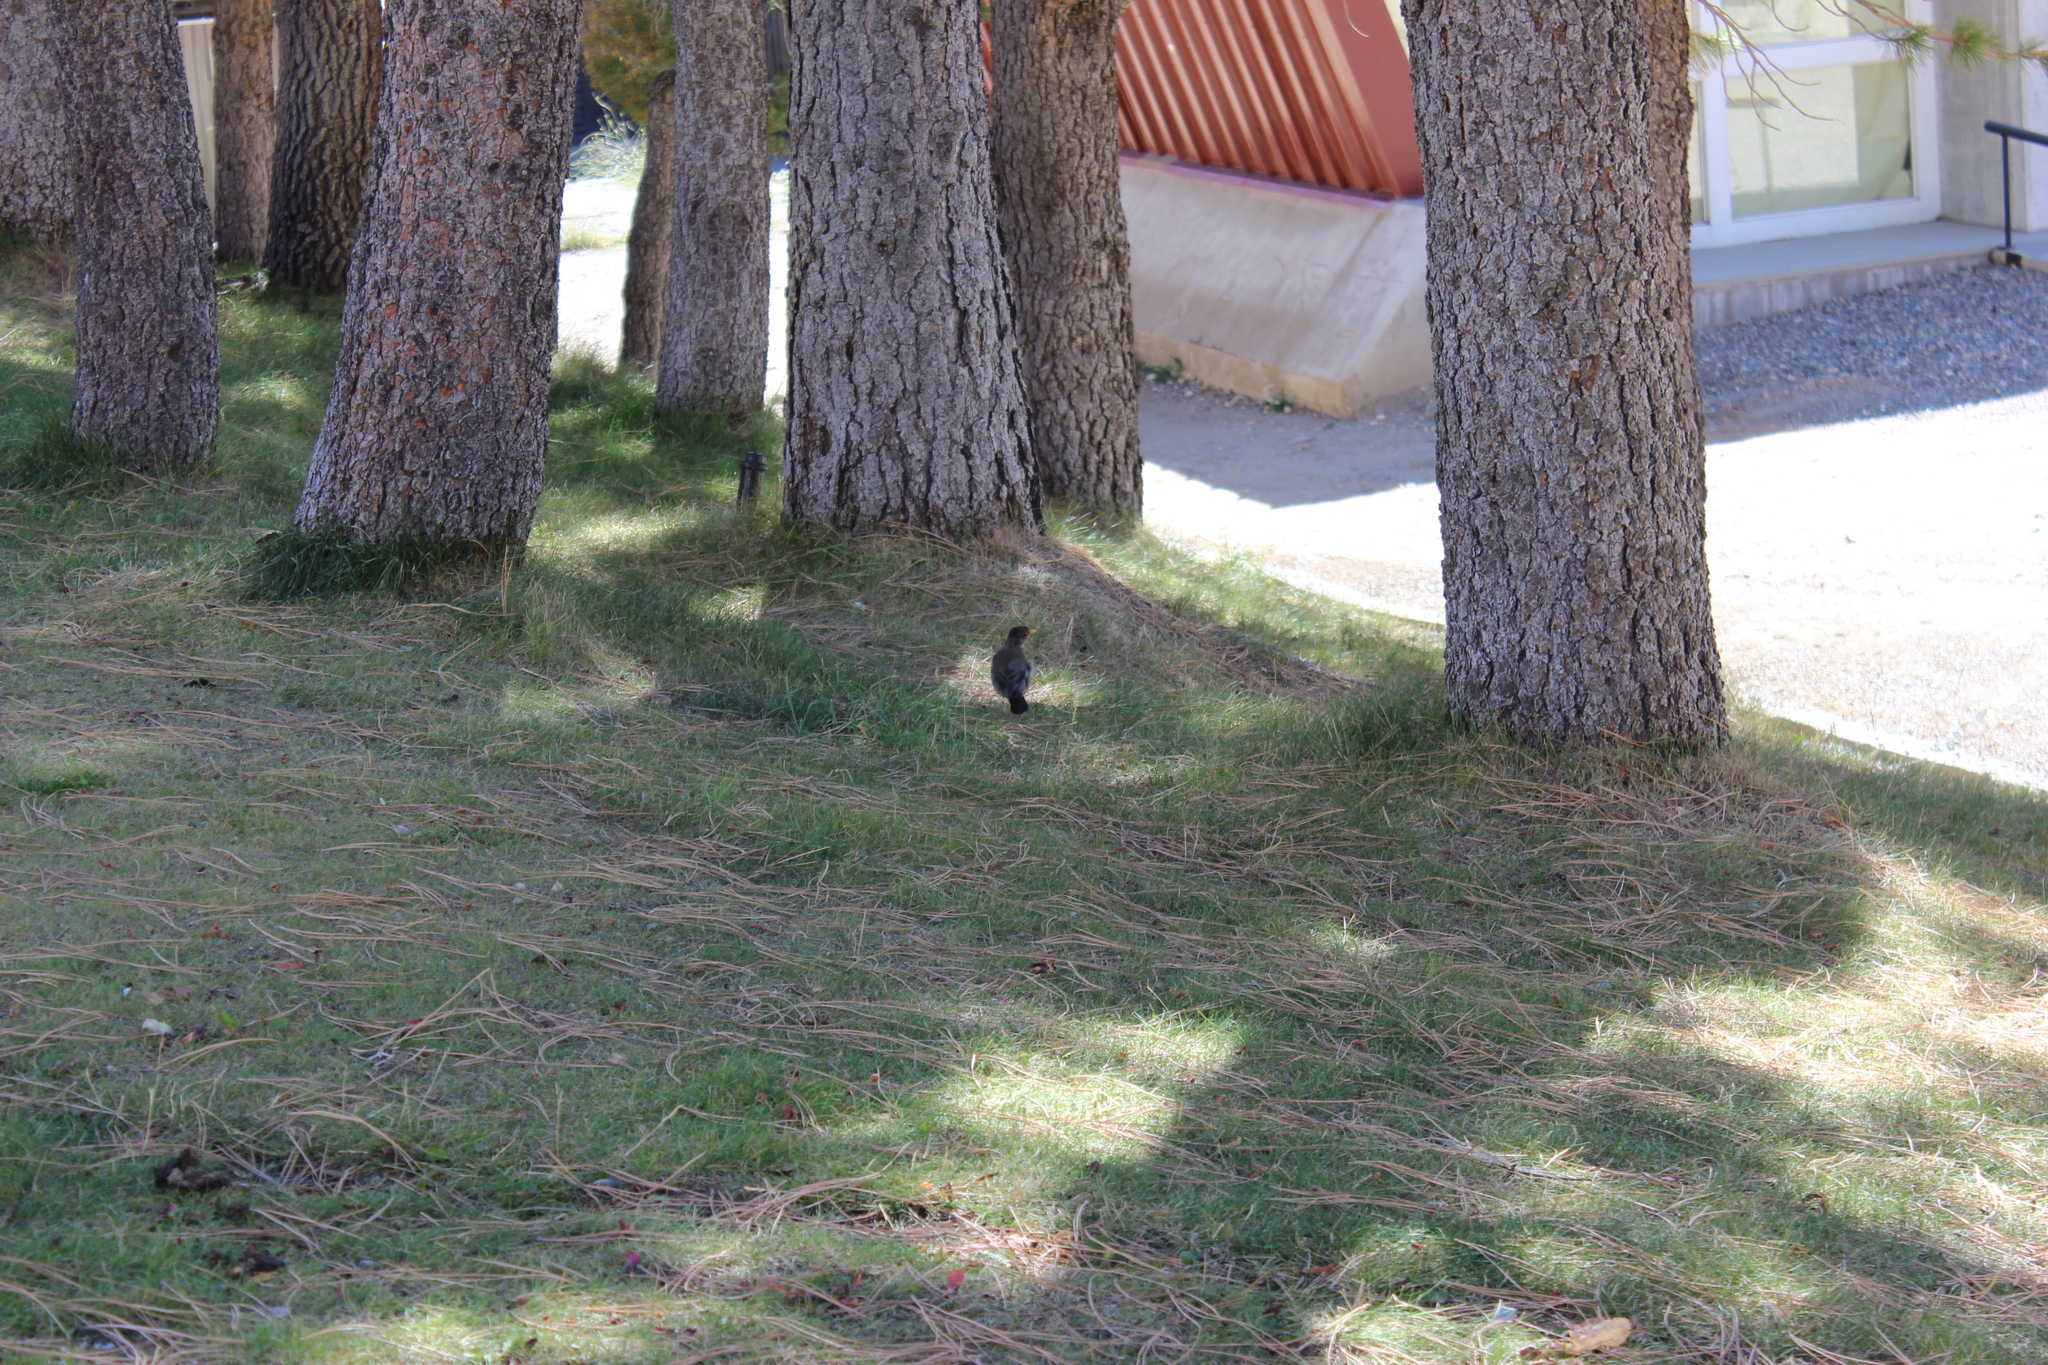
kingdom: Animalia
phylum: Chordata
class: Aves
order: Passeriformes
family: Turdidae
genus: Turdus
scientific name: Turdus falcklandii
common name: Austral thrush
